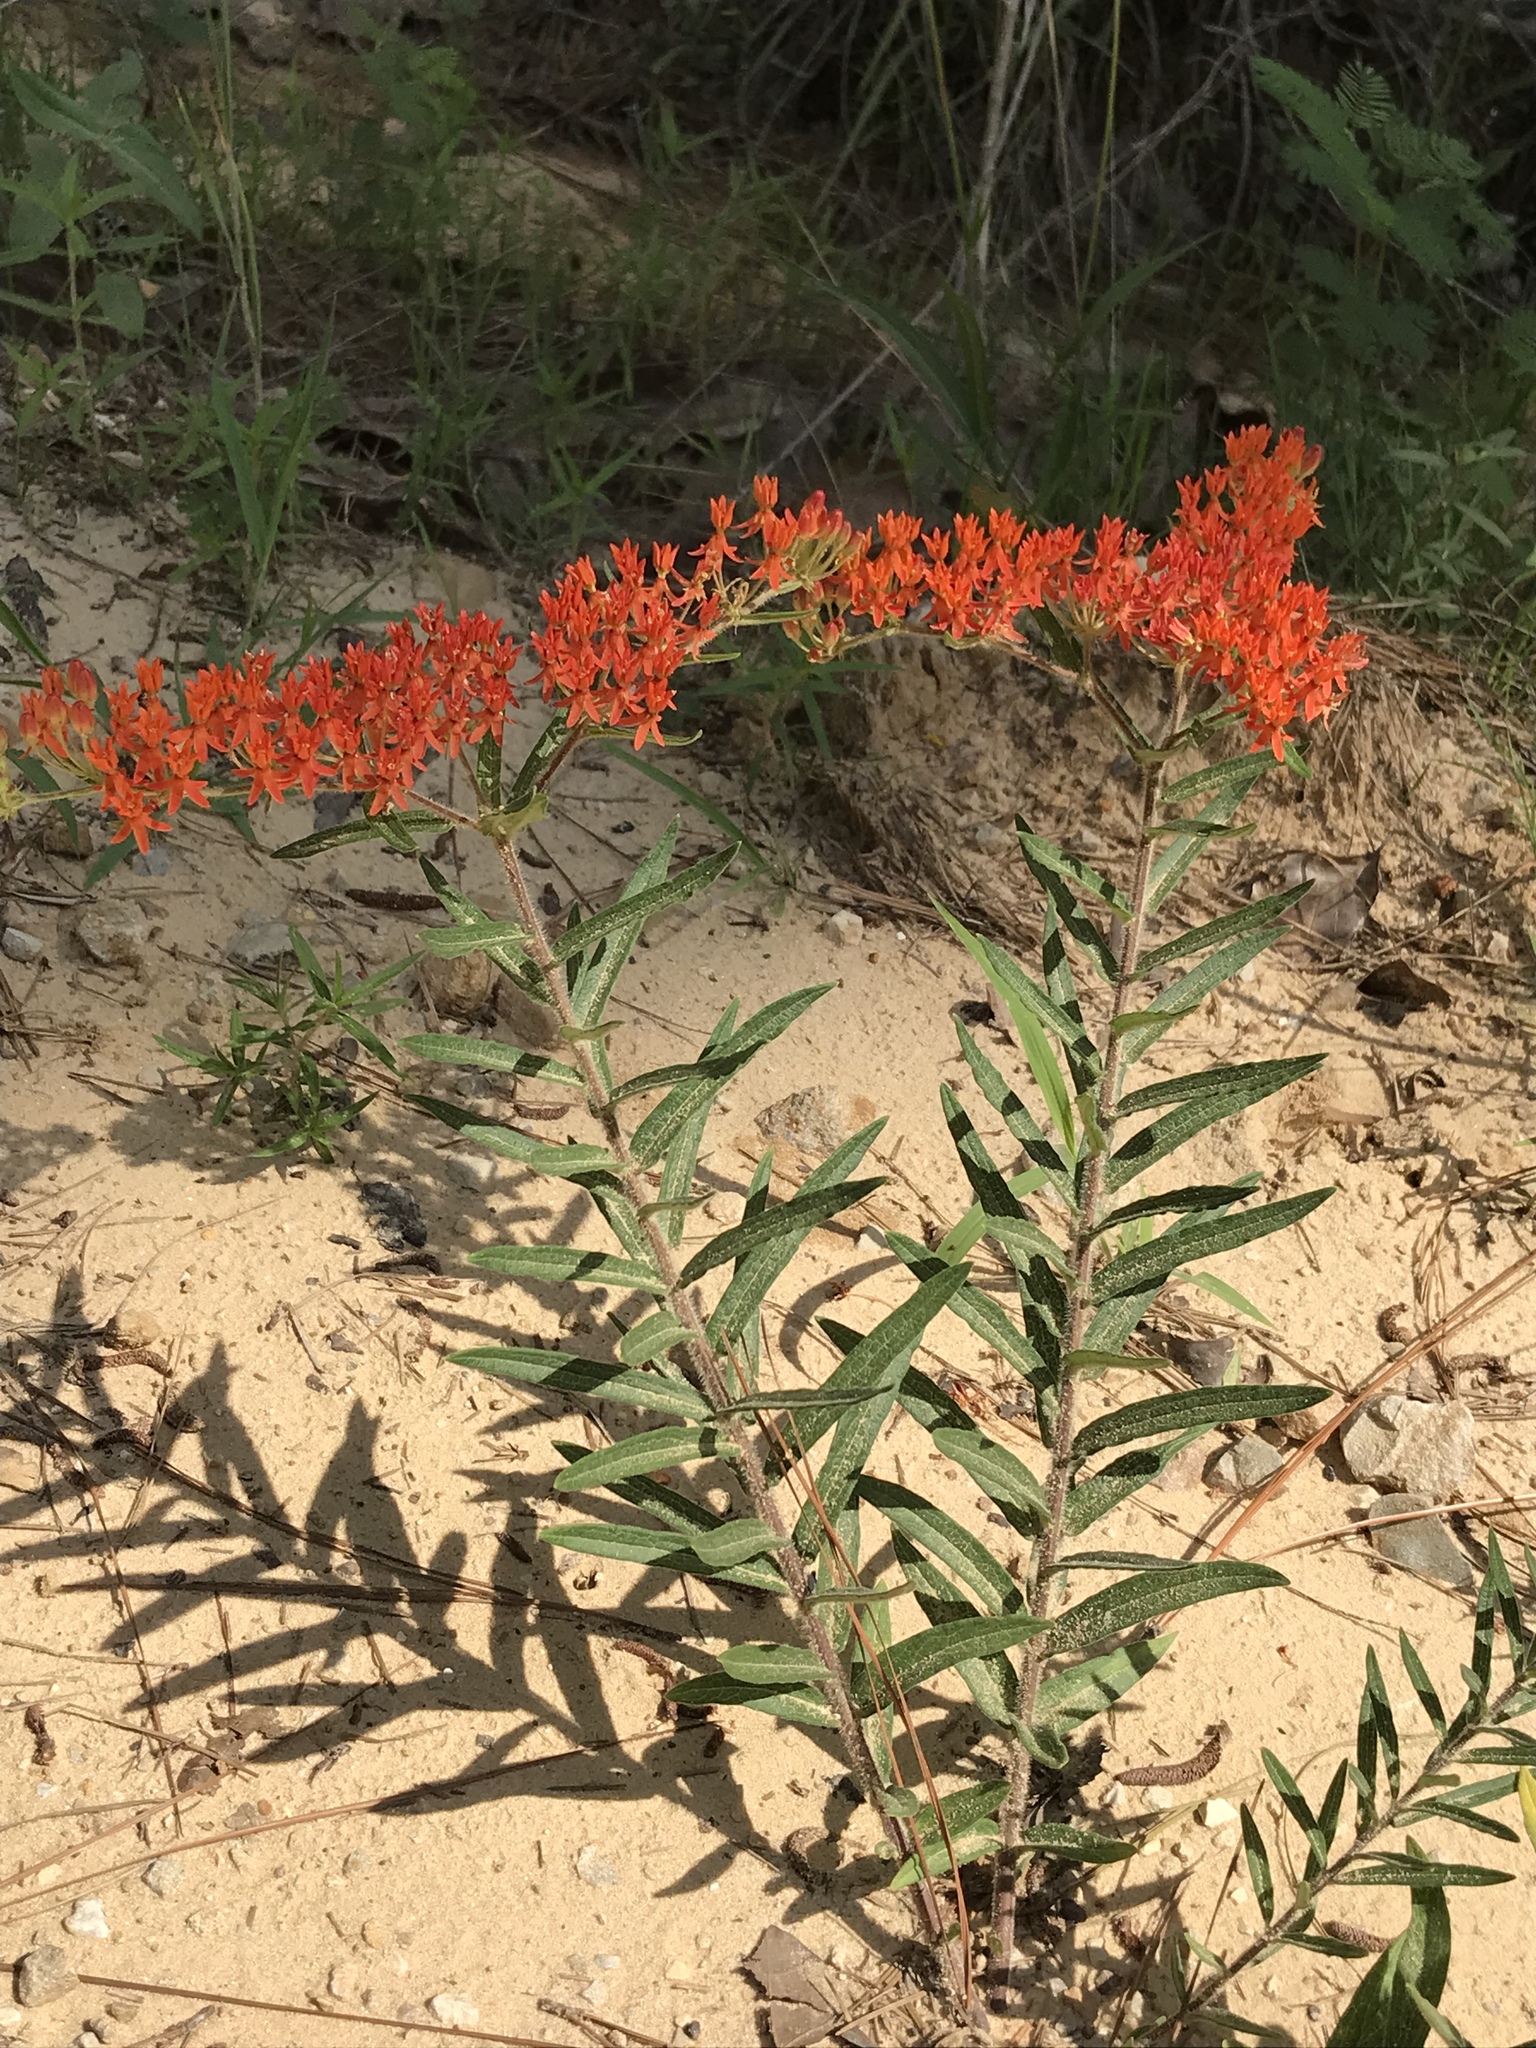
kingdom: Plantae
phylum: Tracheophyta
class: Magnoliopsida
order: Gentianales
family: Apocynaceae
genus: Asclepias
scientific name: Asclepias tuberosa
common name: Butterfly milkweed
